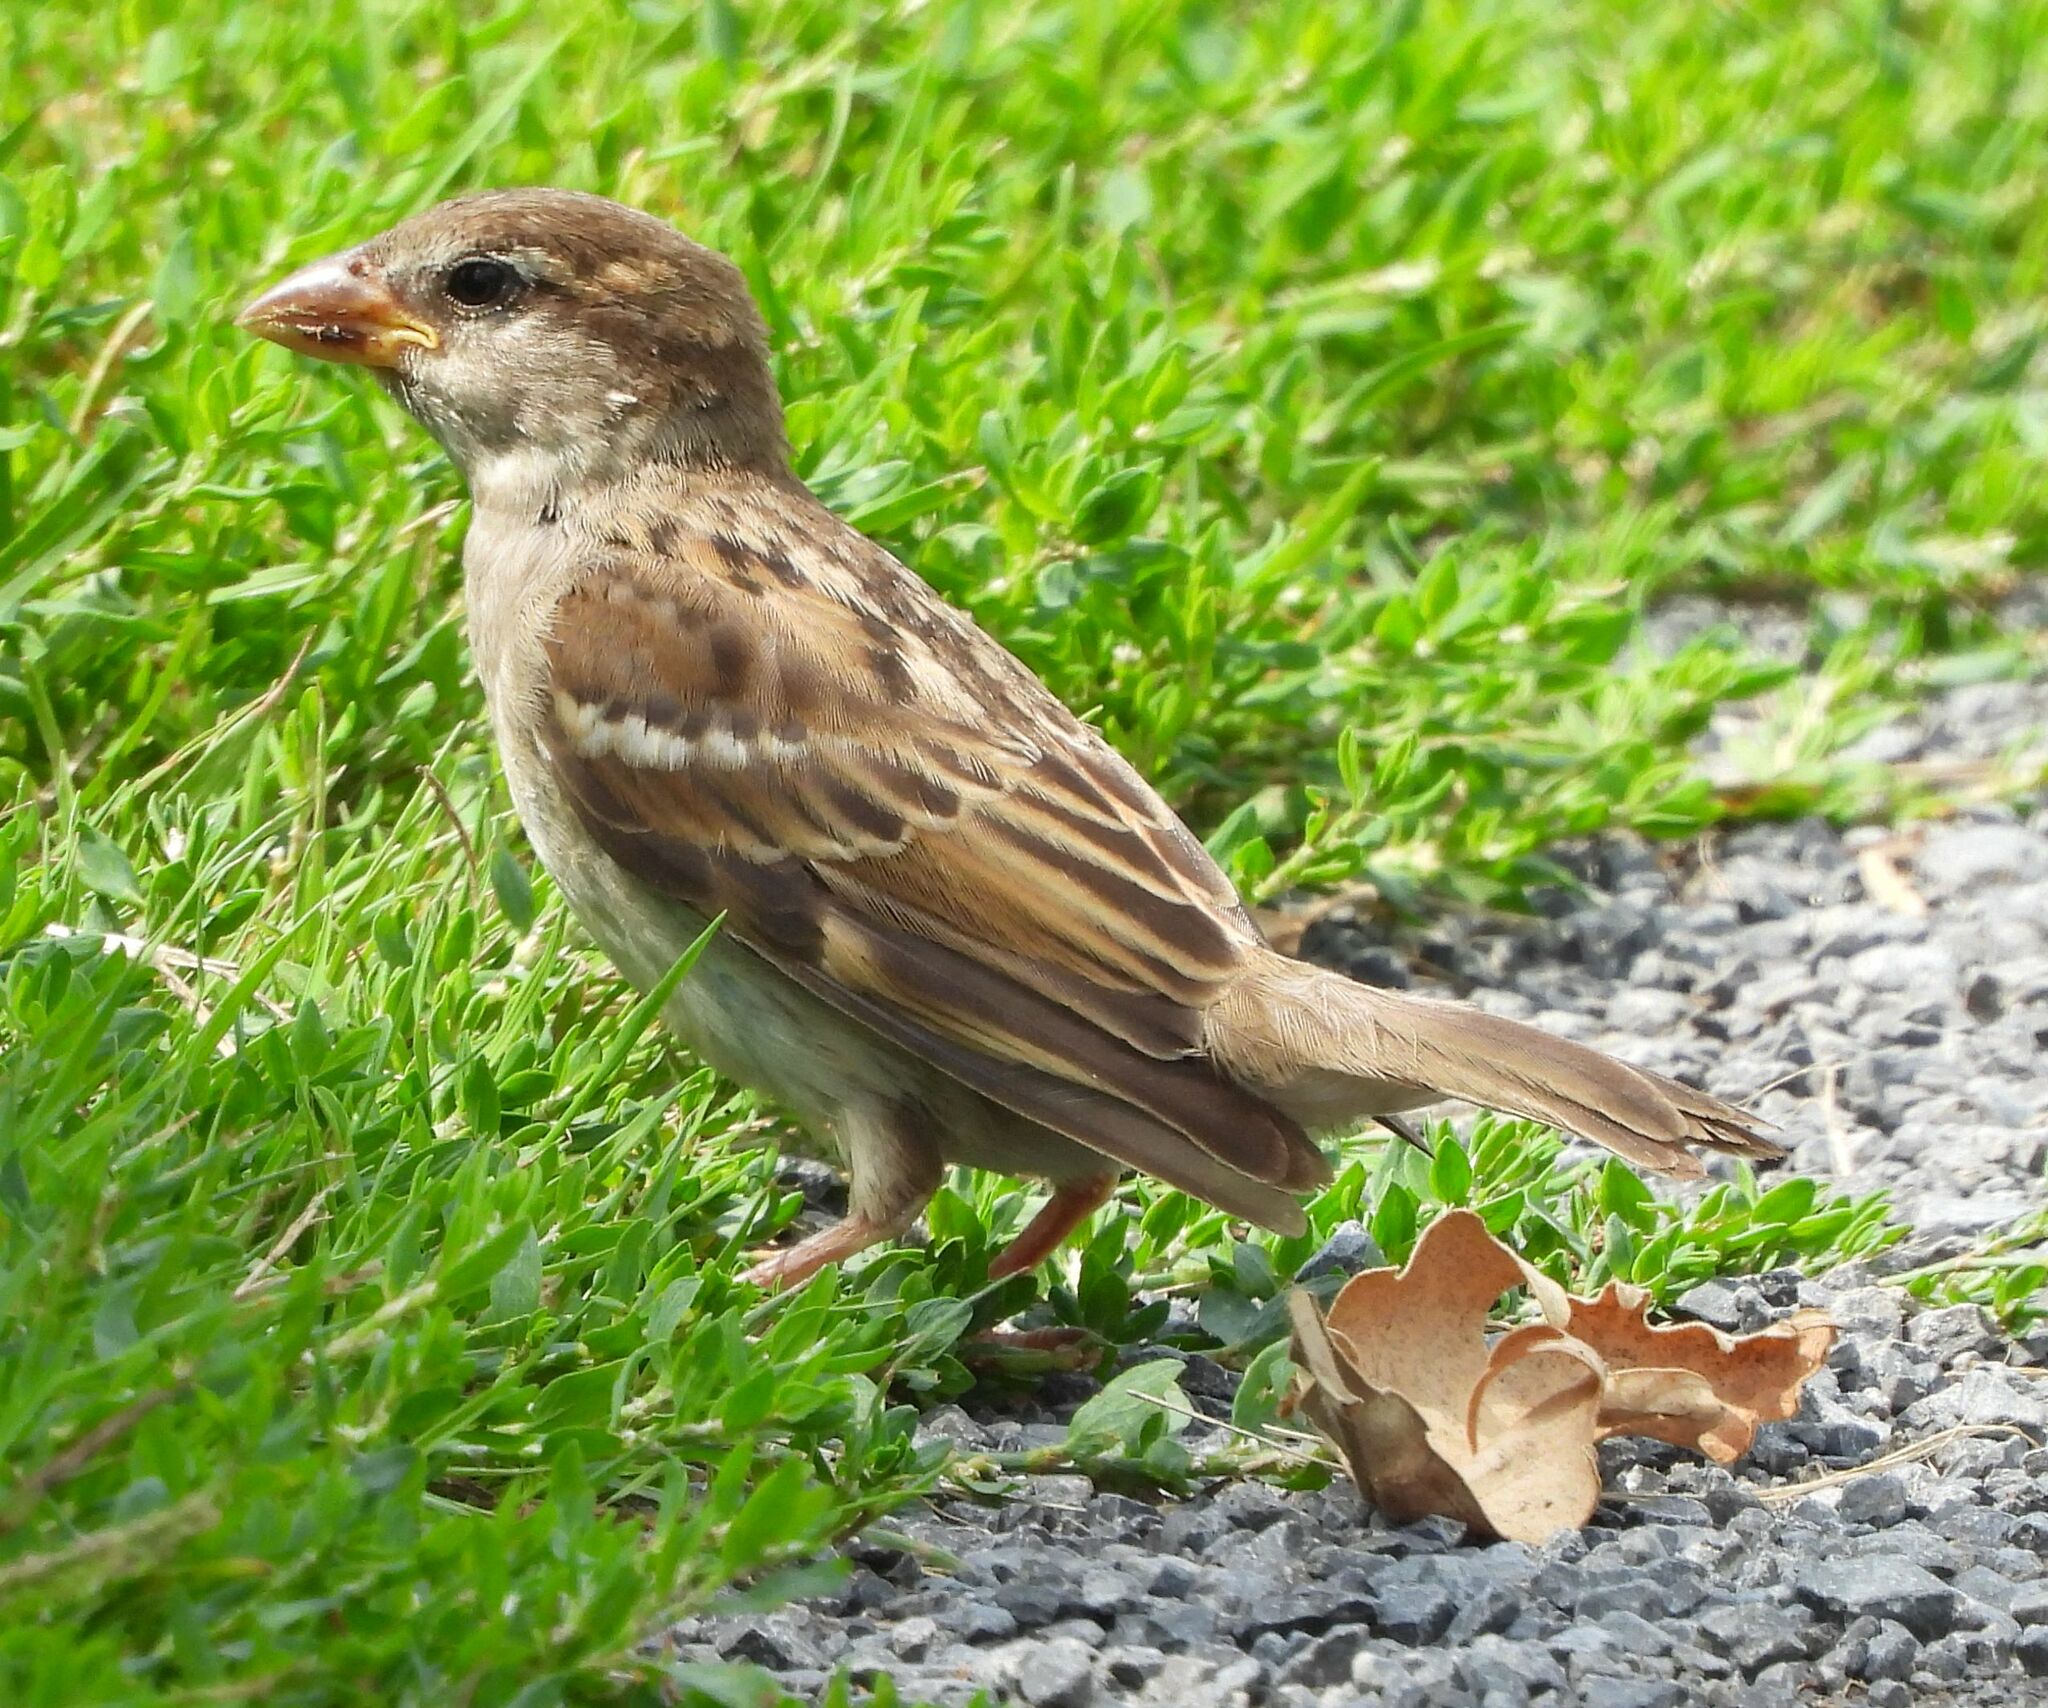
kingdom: Animalia
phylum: Chordata
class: Aves
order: Passeriformes
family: Passeridae
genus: Passer
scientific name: Passer domesticus
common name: House sparrow
